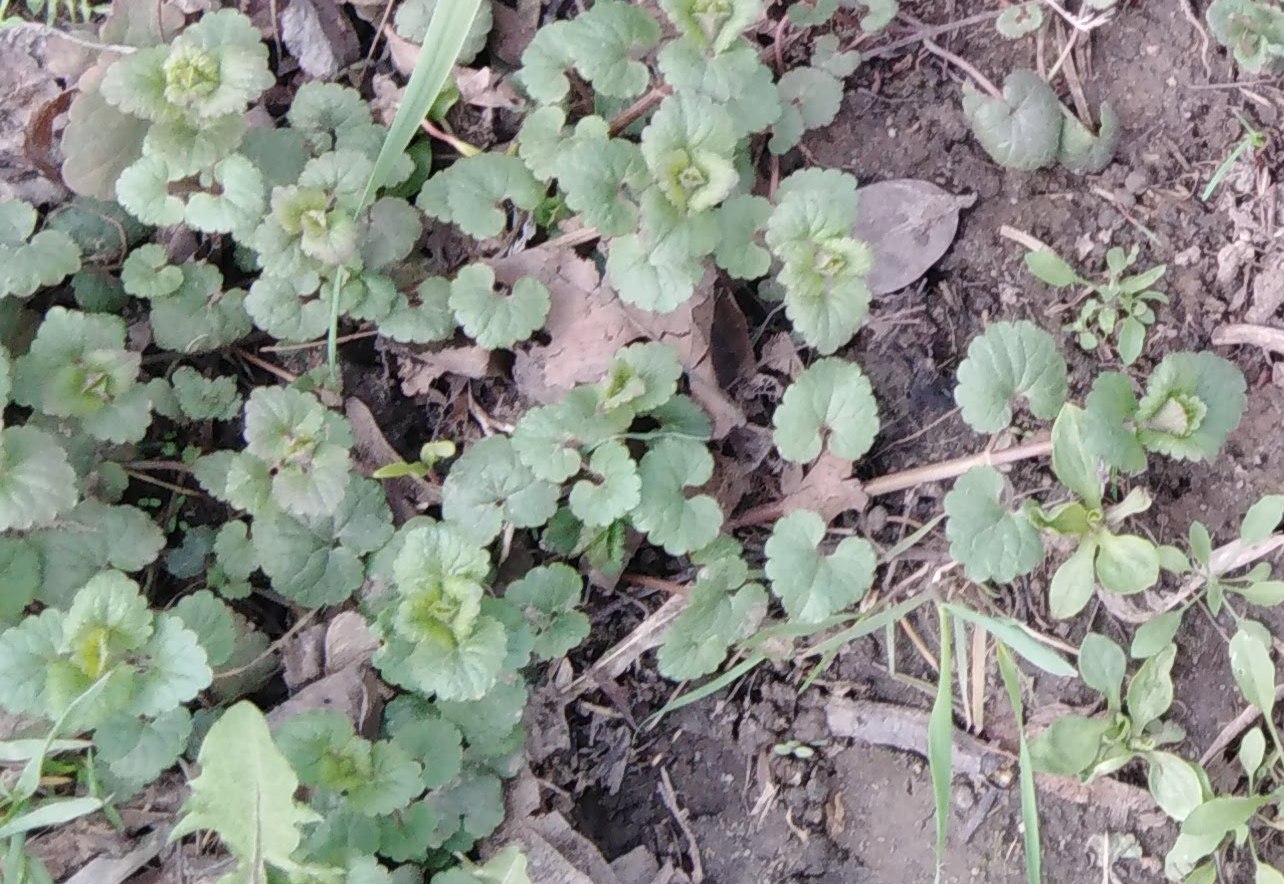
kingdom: Plantae
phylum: Tracheophyta
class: Magnoliopsida
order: Lamiales
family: Lamiaceae
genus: Glechoma
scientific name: Glechoma hederacea
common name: Ground ivy
